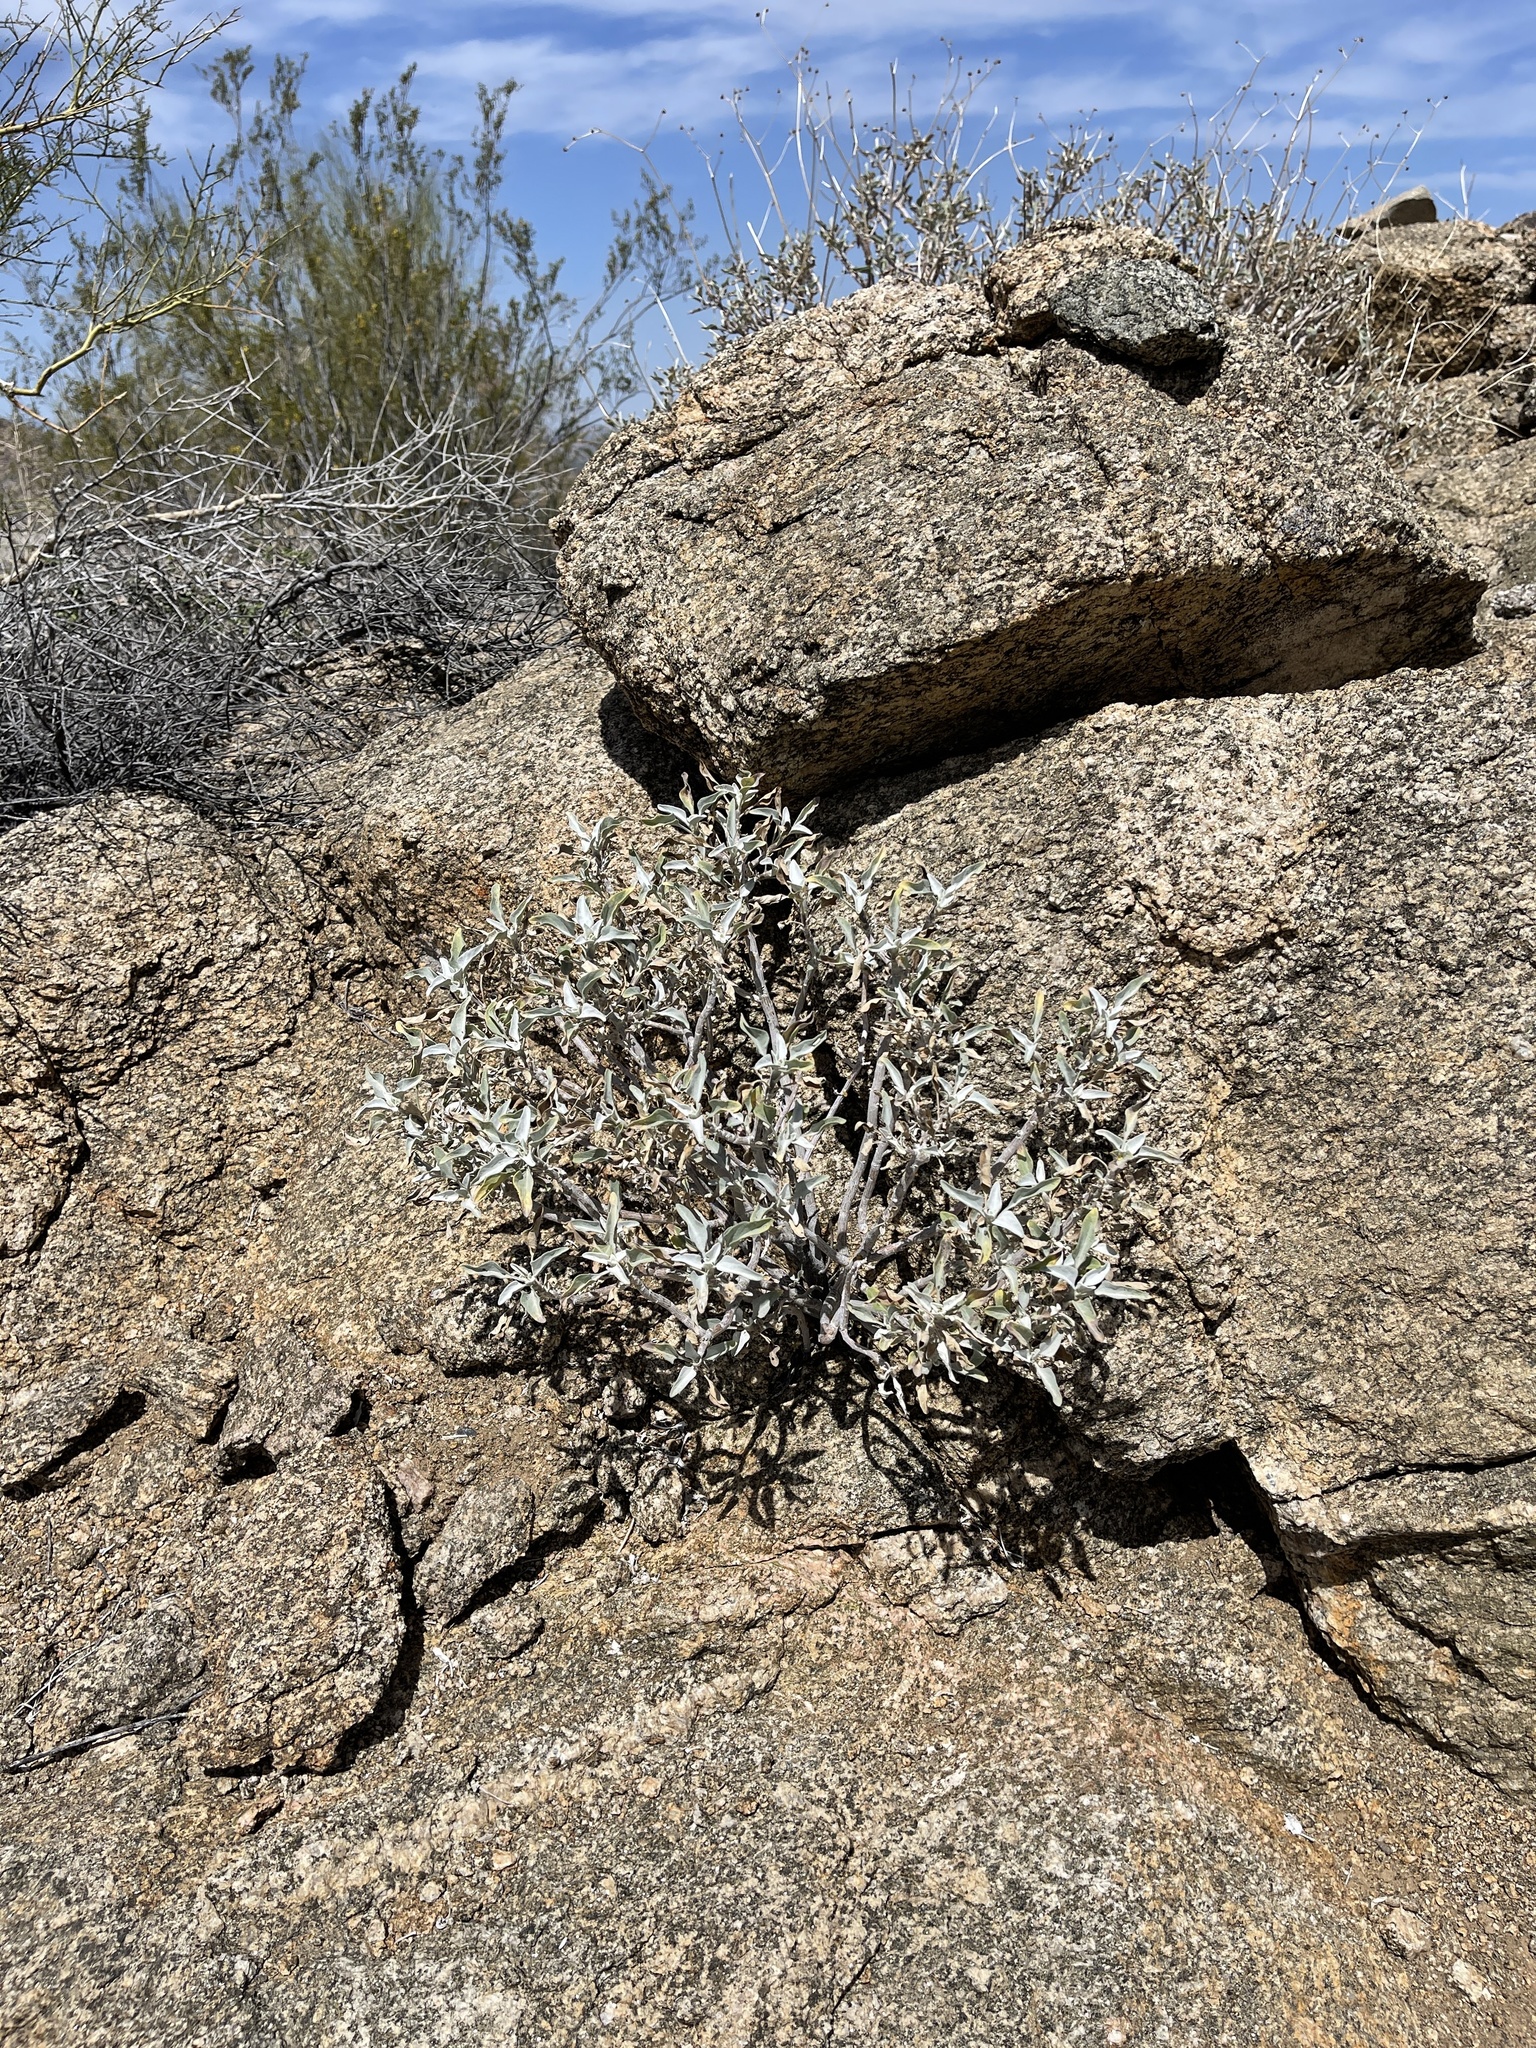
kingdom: Plantae
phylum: Tracheophyta
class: Magnoliopsida
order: Asterales
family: Asteraceae
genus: Encelia
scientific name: Encelia farinosa
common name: Brittlebush
